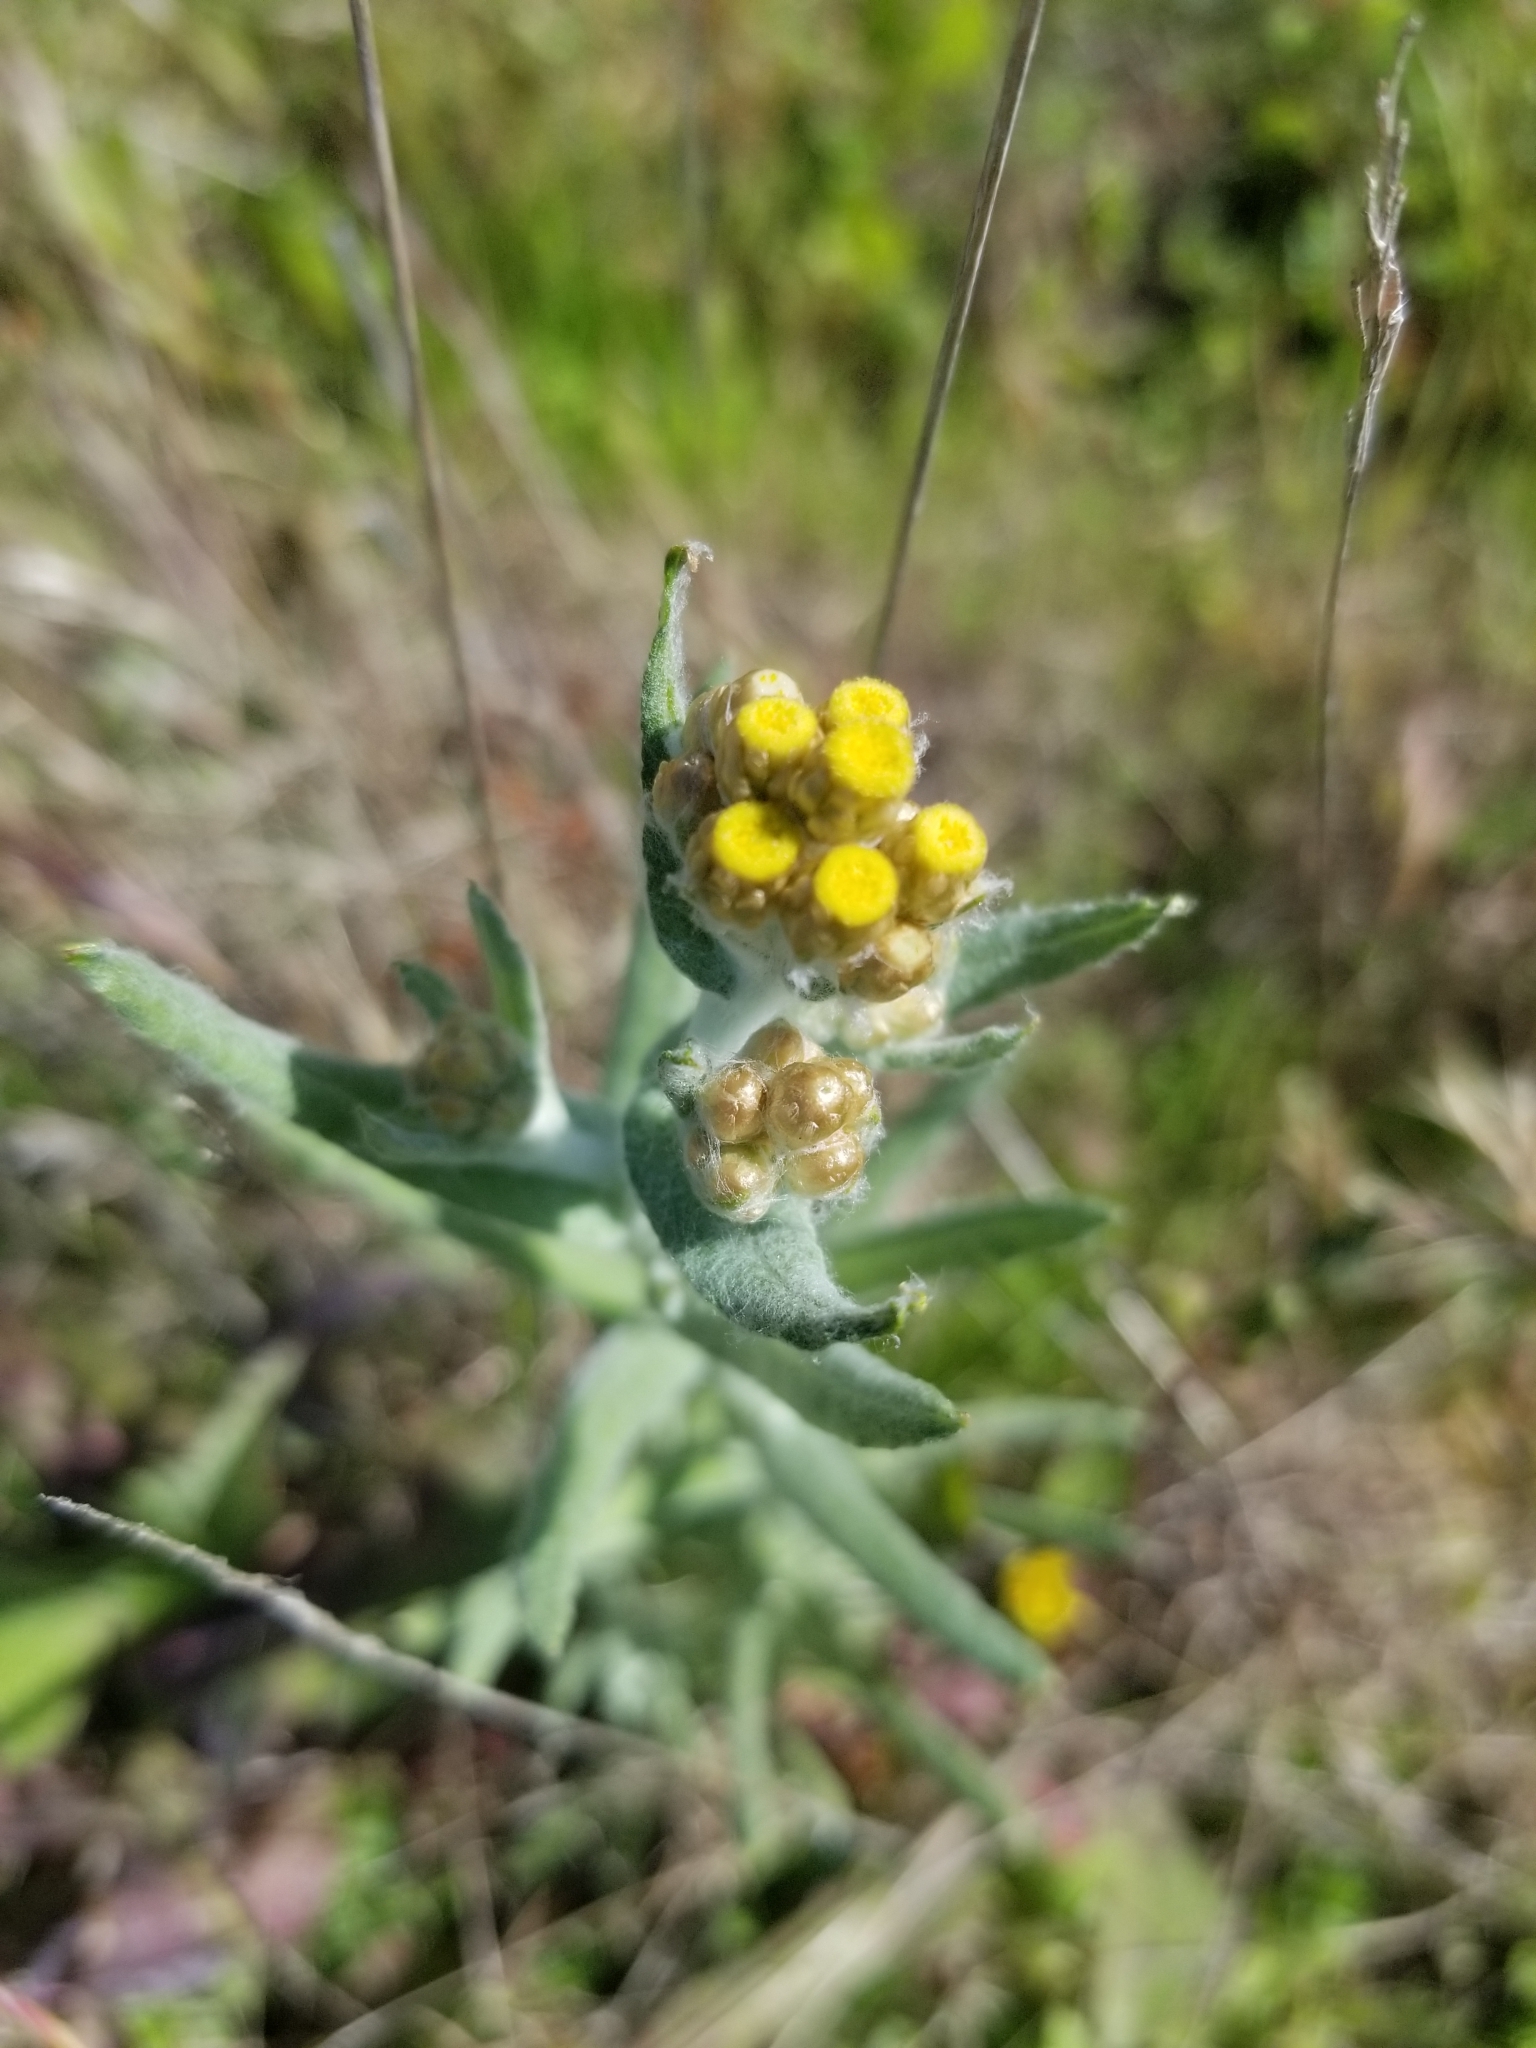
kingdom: Plantae
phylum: Tracheophyta
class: Magnoliopsida
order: Asterales
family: Asteraceae
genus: Pseudognaphalium
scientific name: Pseudognaphalium stramineum
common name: Cotton-batting-plant
